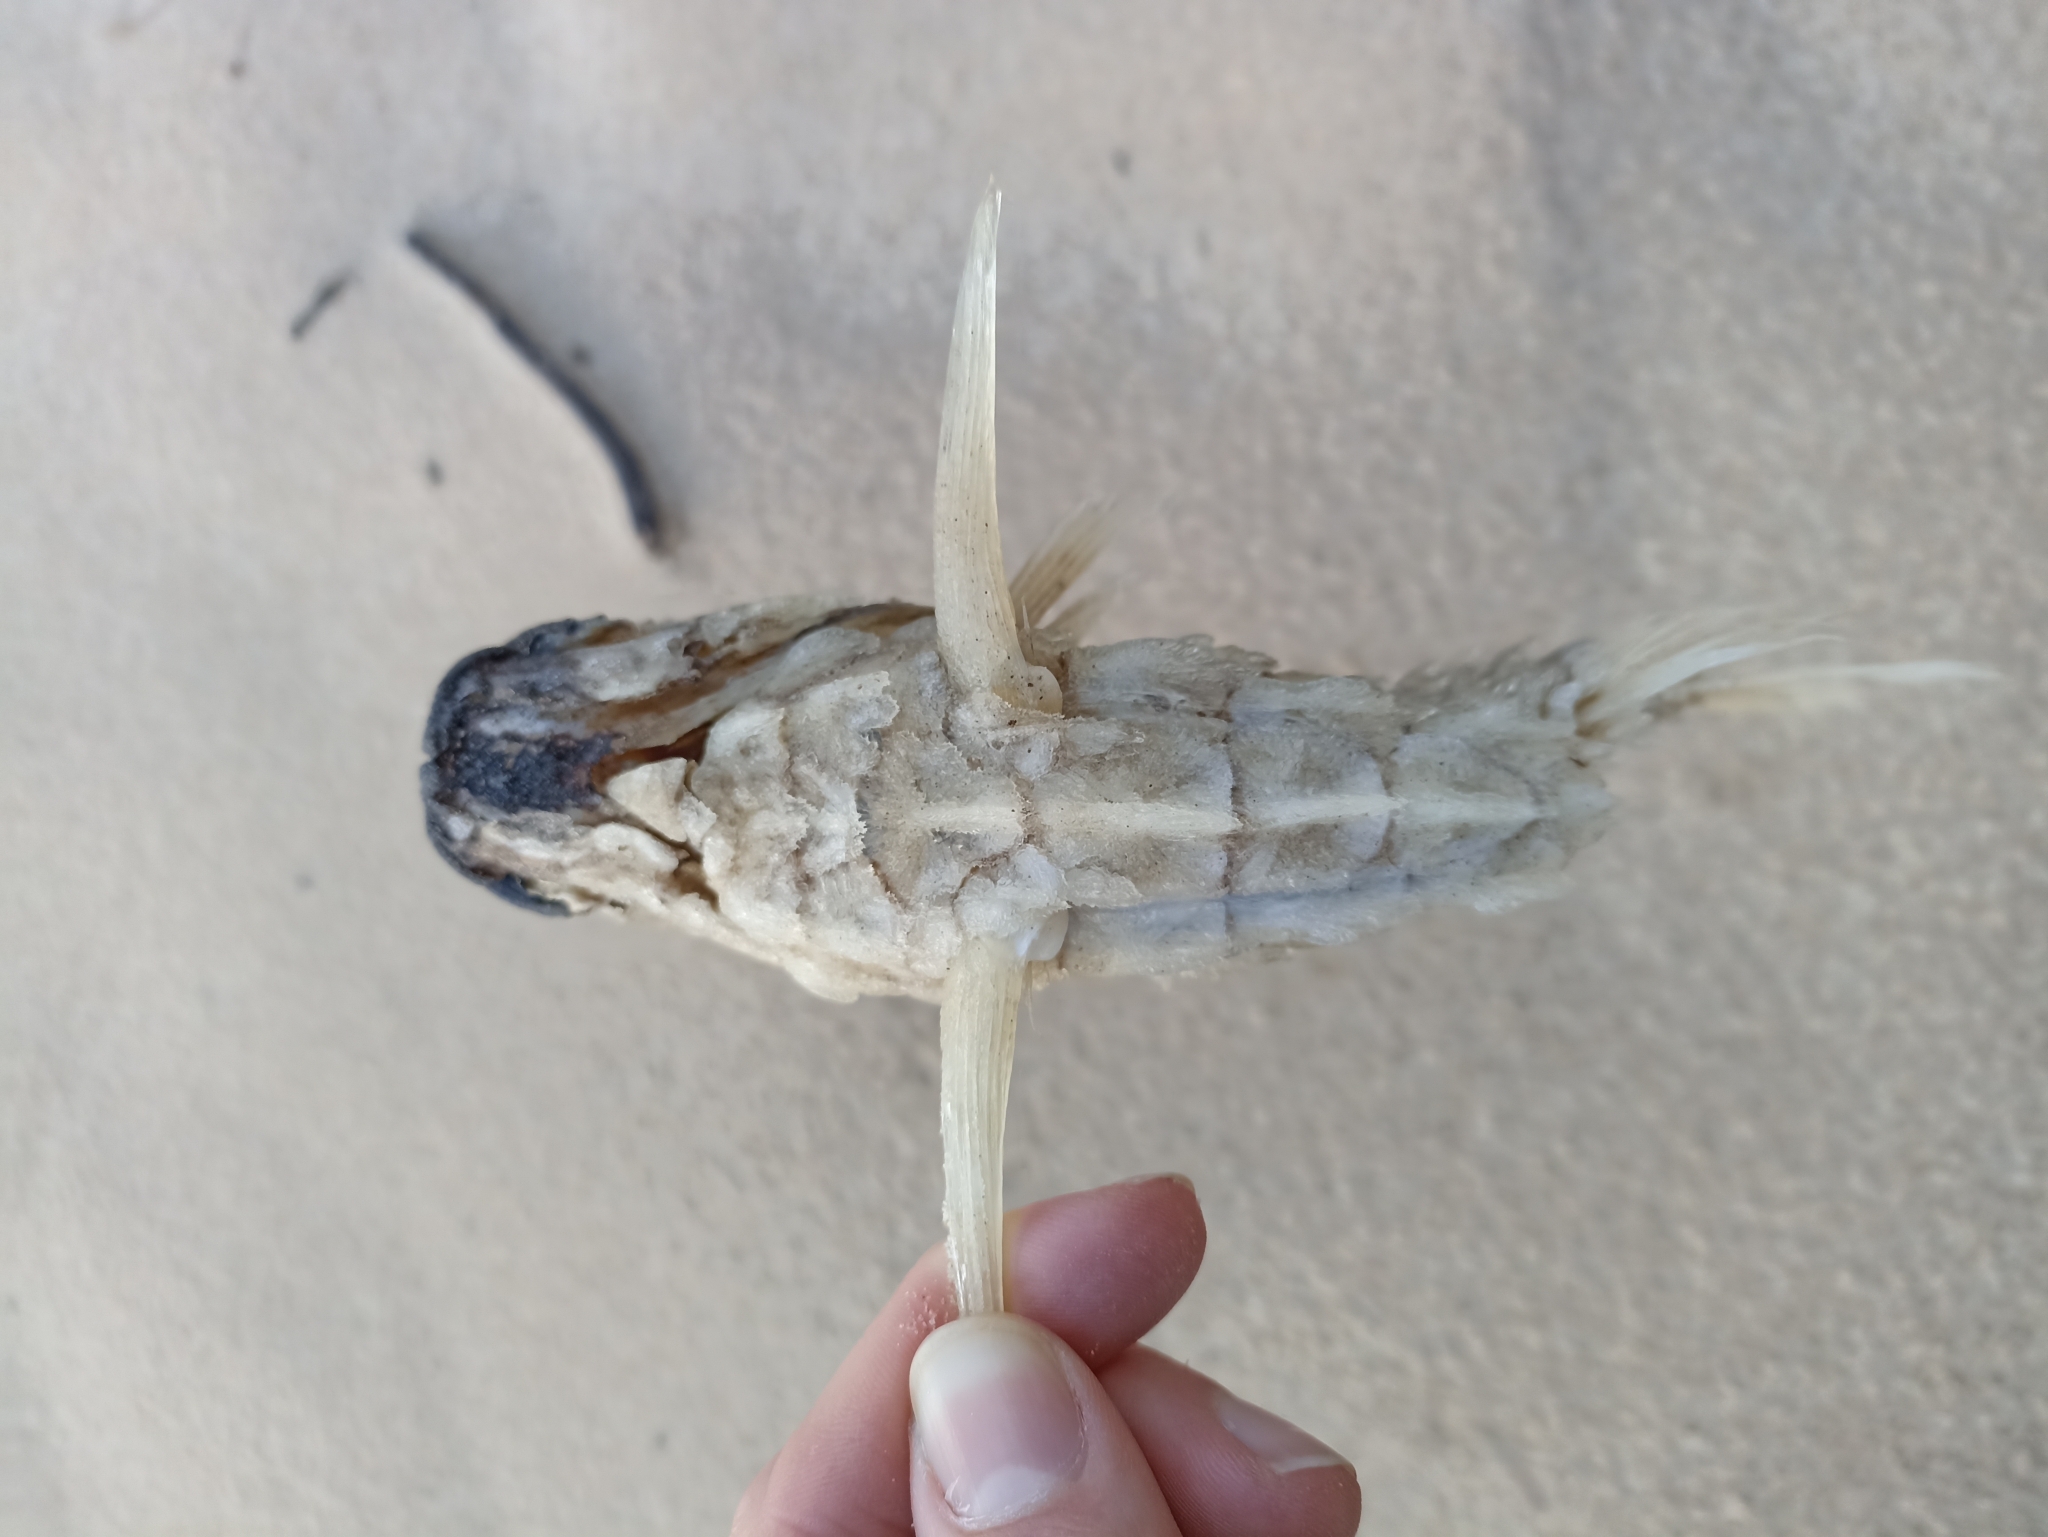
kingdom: Animalia
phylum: Chordata
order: Beryciformes
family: Monocentridae
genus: Cleidopus
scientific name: Cleidopus gloriamaris
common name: Mailfish
